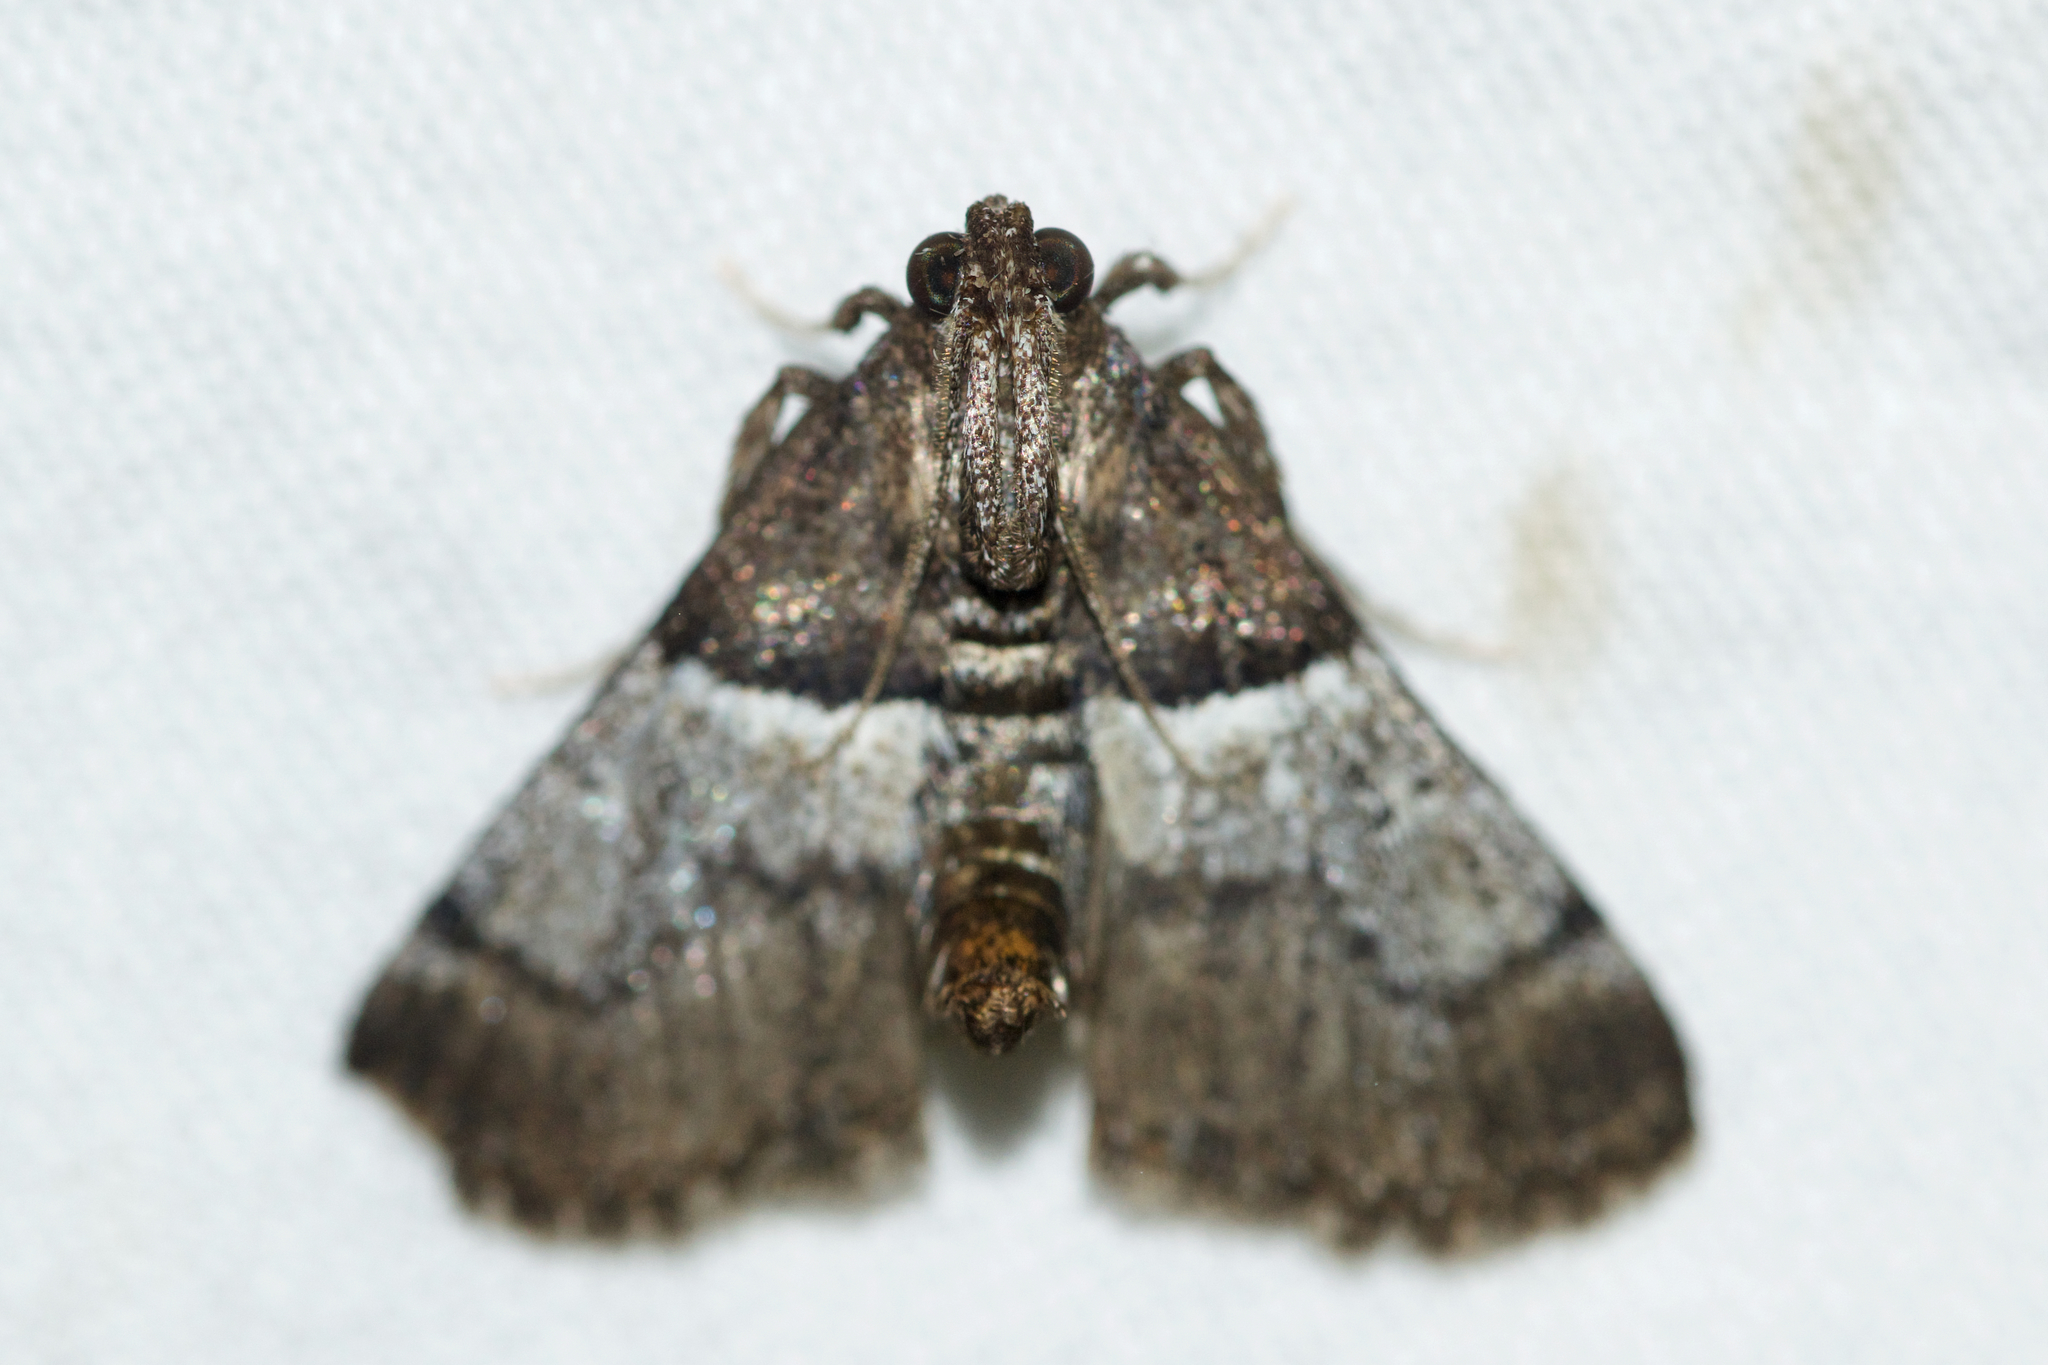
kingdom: Animalia
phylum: Arthropoda
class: Insecta
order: Lepidoptera
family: Pyralidae
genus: Macalla
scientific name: Macalla zelleri
